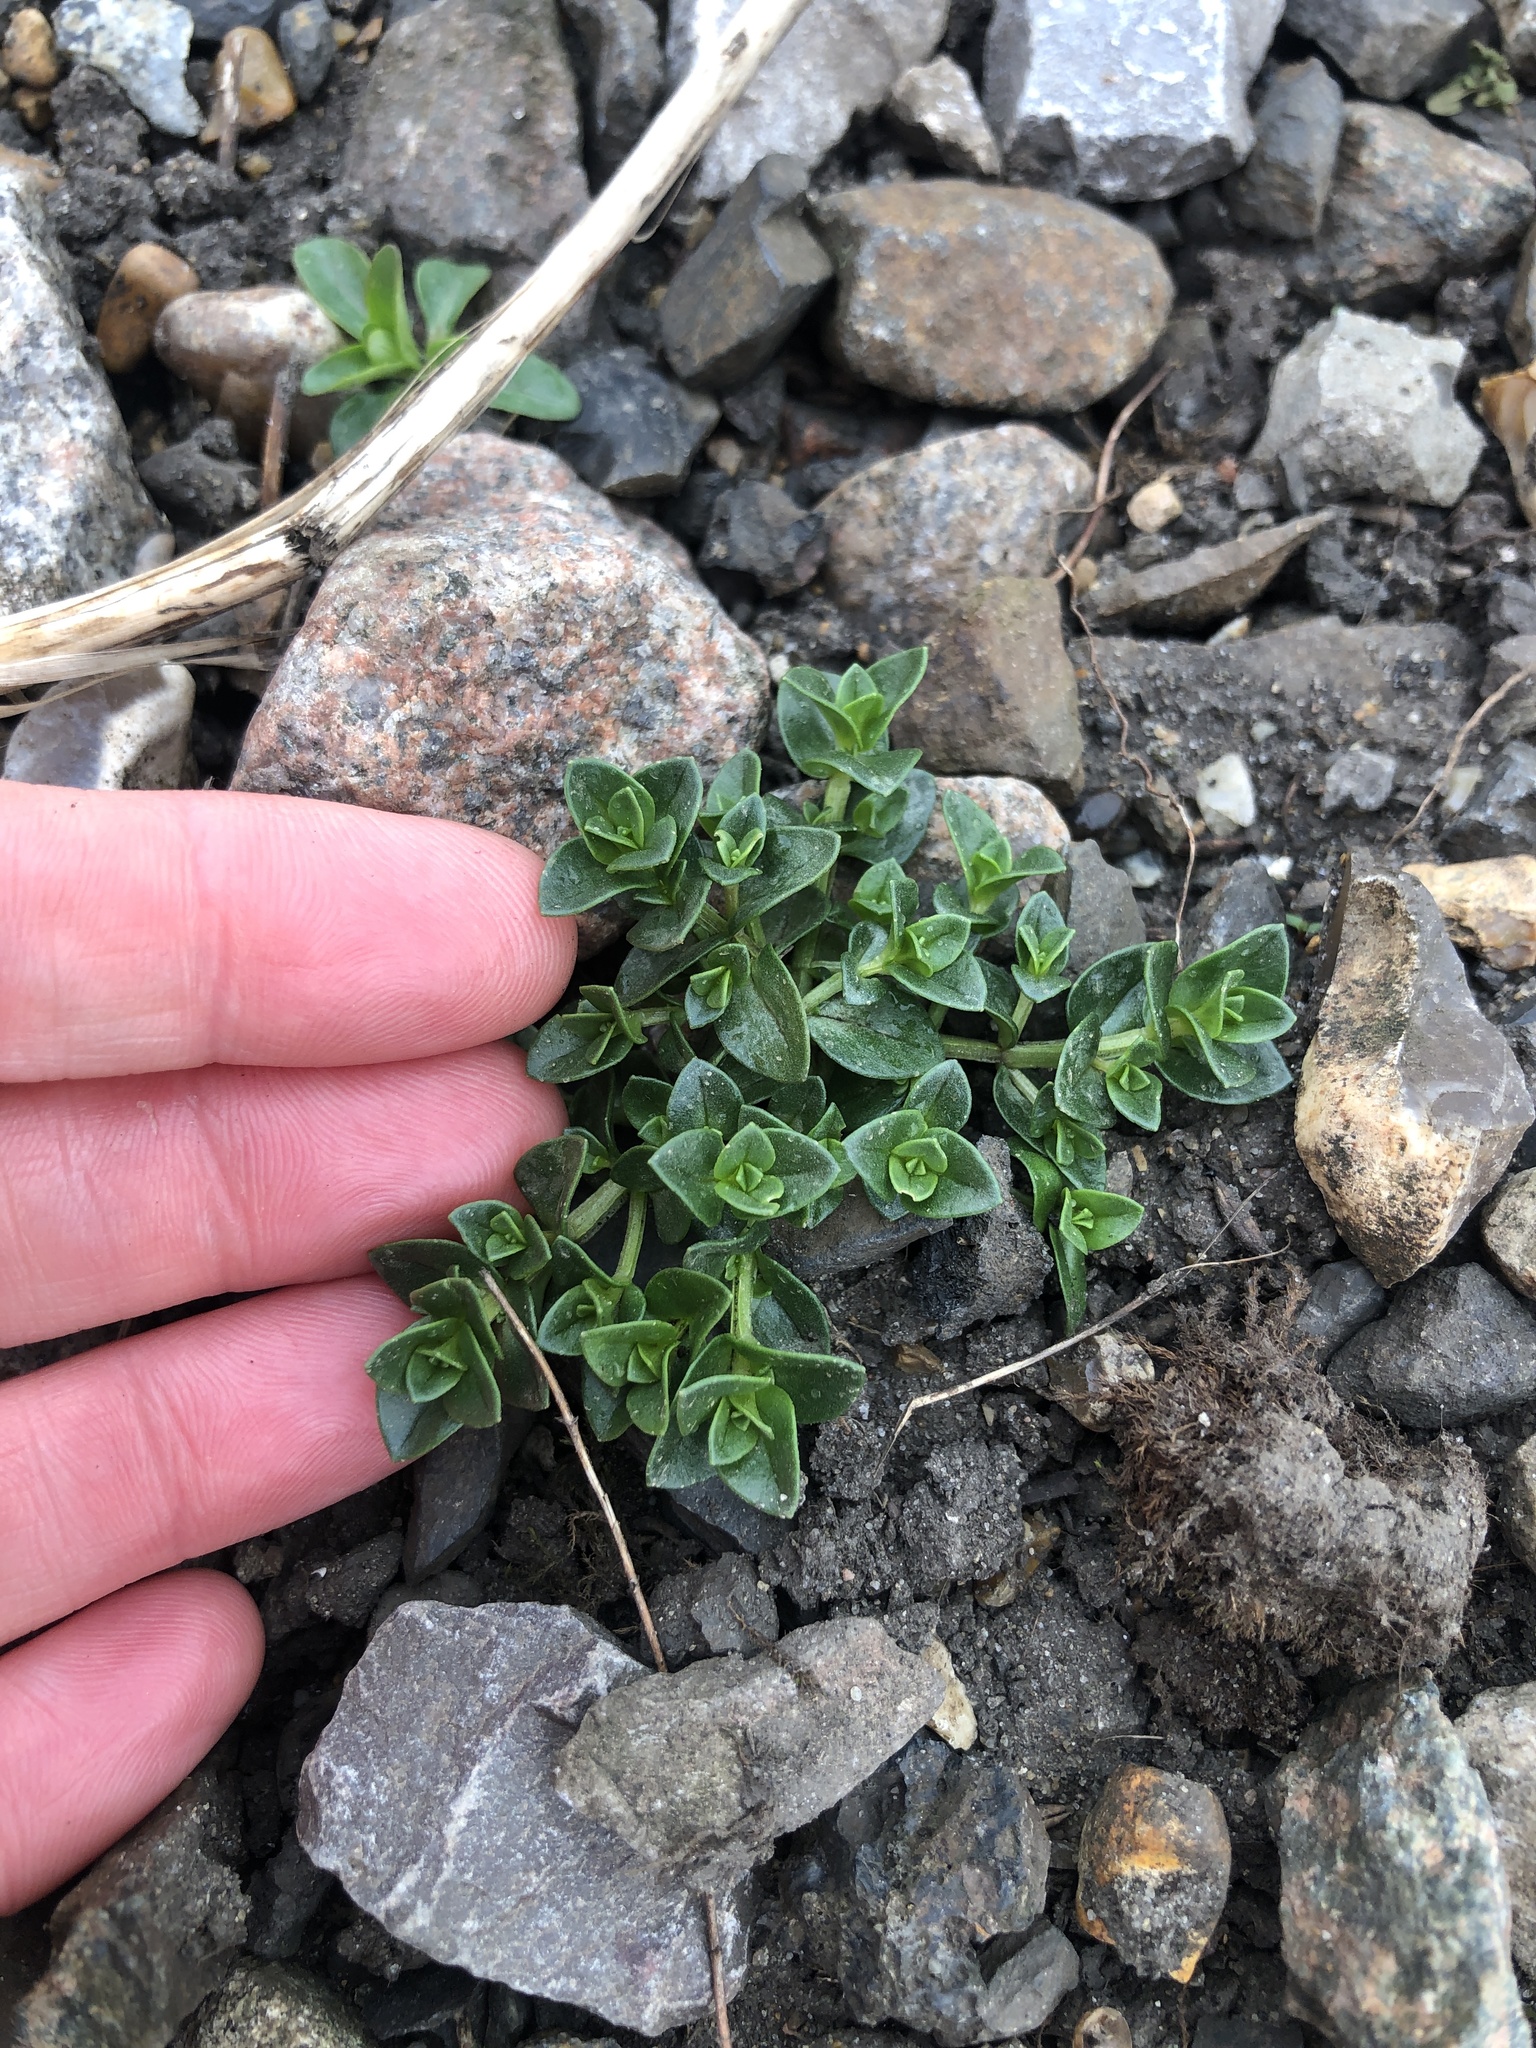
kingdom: Plantae
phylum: Tracheophyta
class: Magnoliopsida
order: Ericales
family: Primulaceae
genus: Lysimachia
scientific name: Lysimachia arvensis
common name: Scarlet pimpernel
